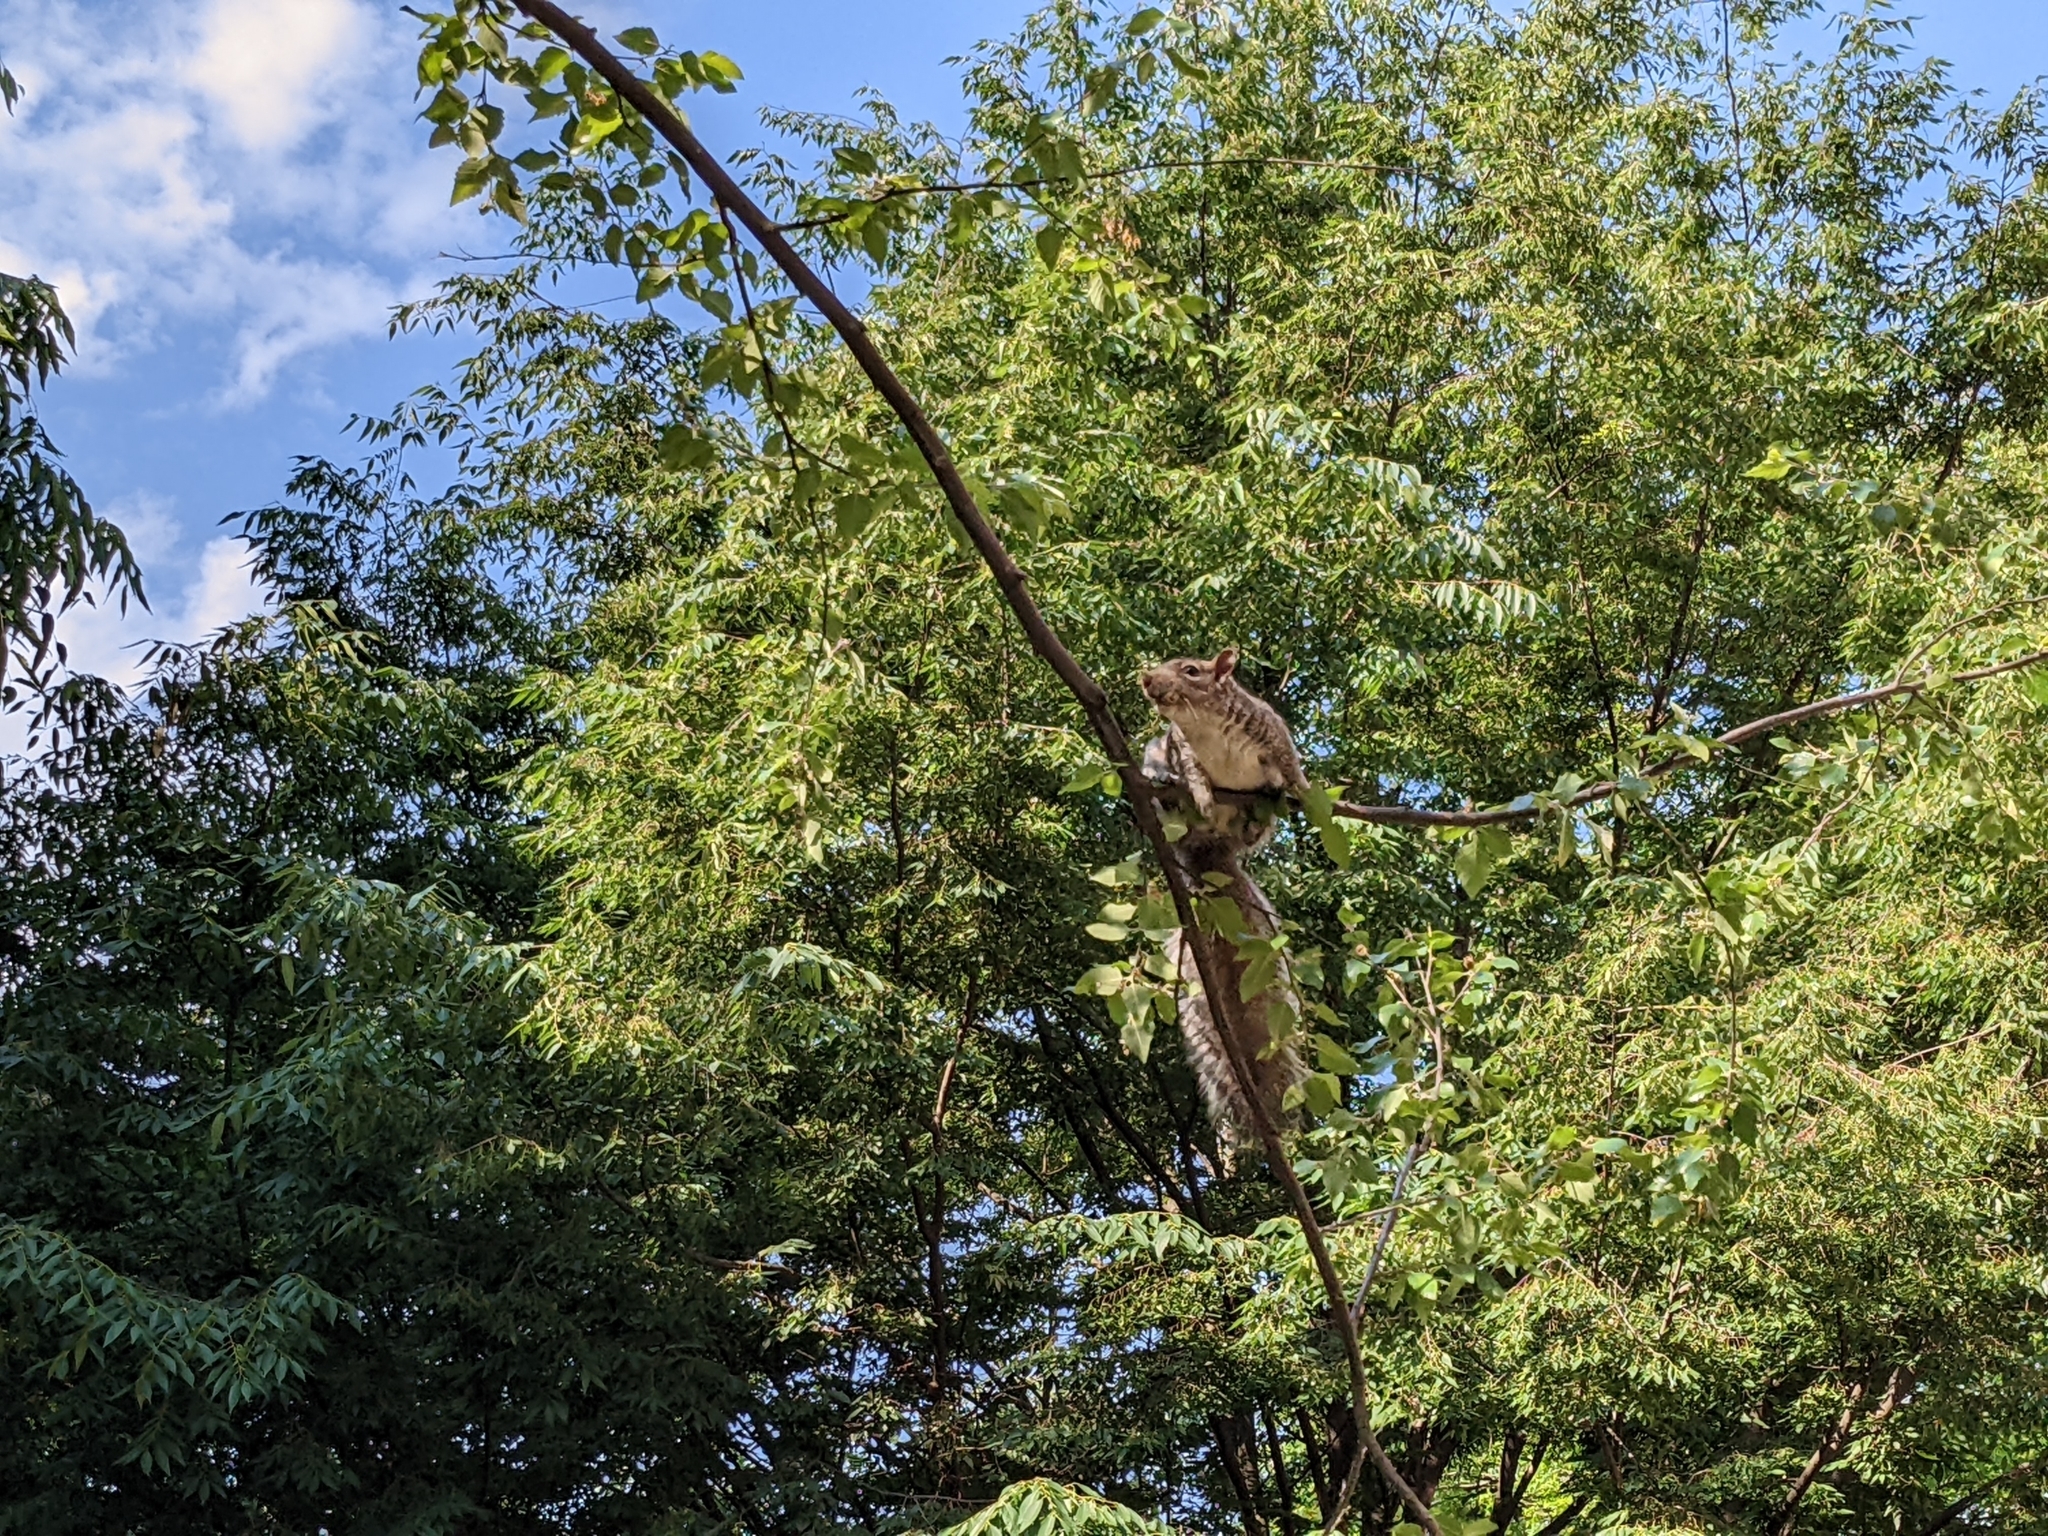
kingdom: Animalia
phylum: Chordata
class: Mammalia
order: Rodentia
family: Sciuridae
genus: Sciurus
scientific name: Sciurus carolinensis
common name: Eastern gray squirrel
